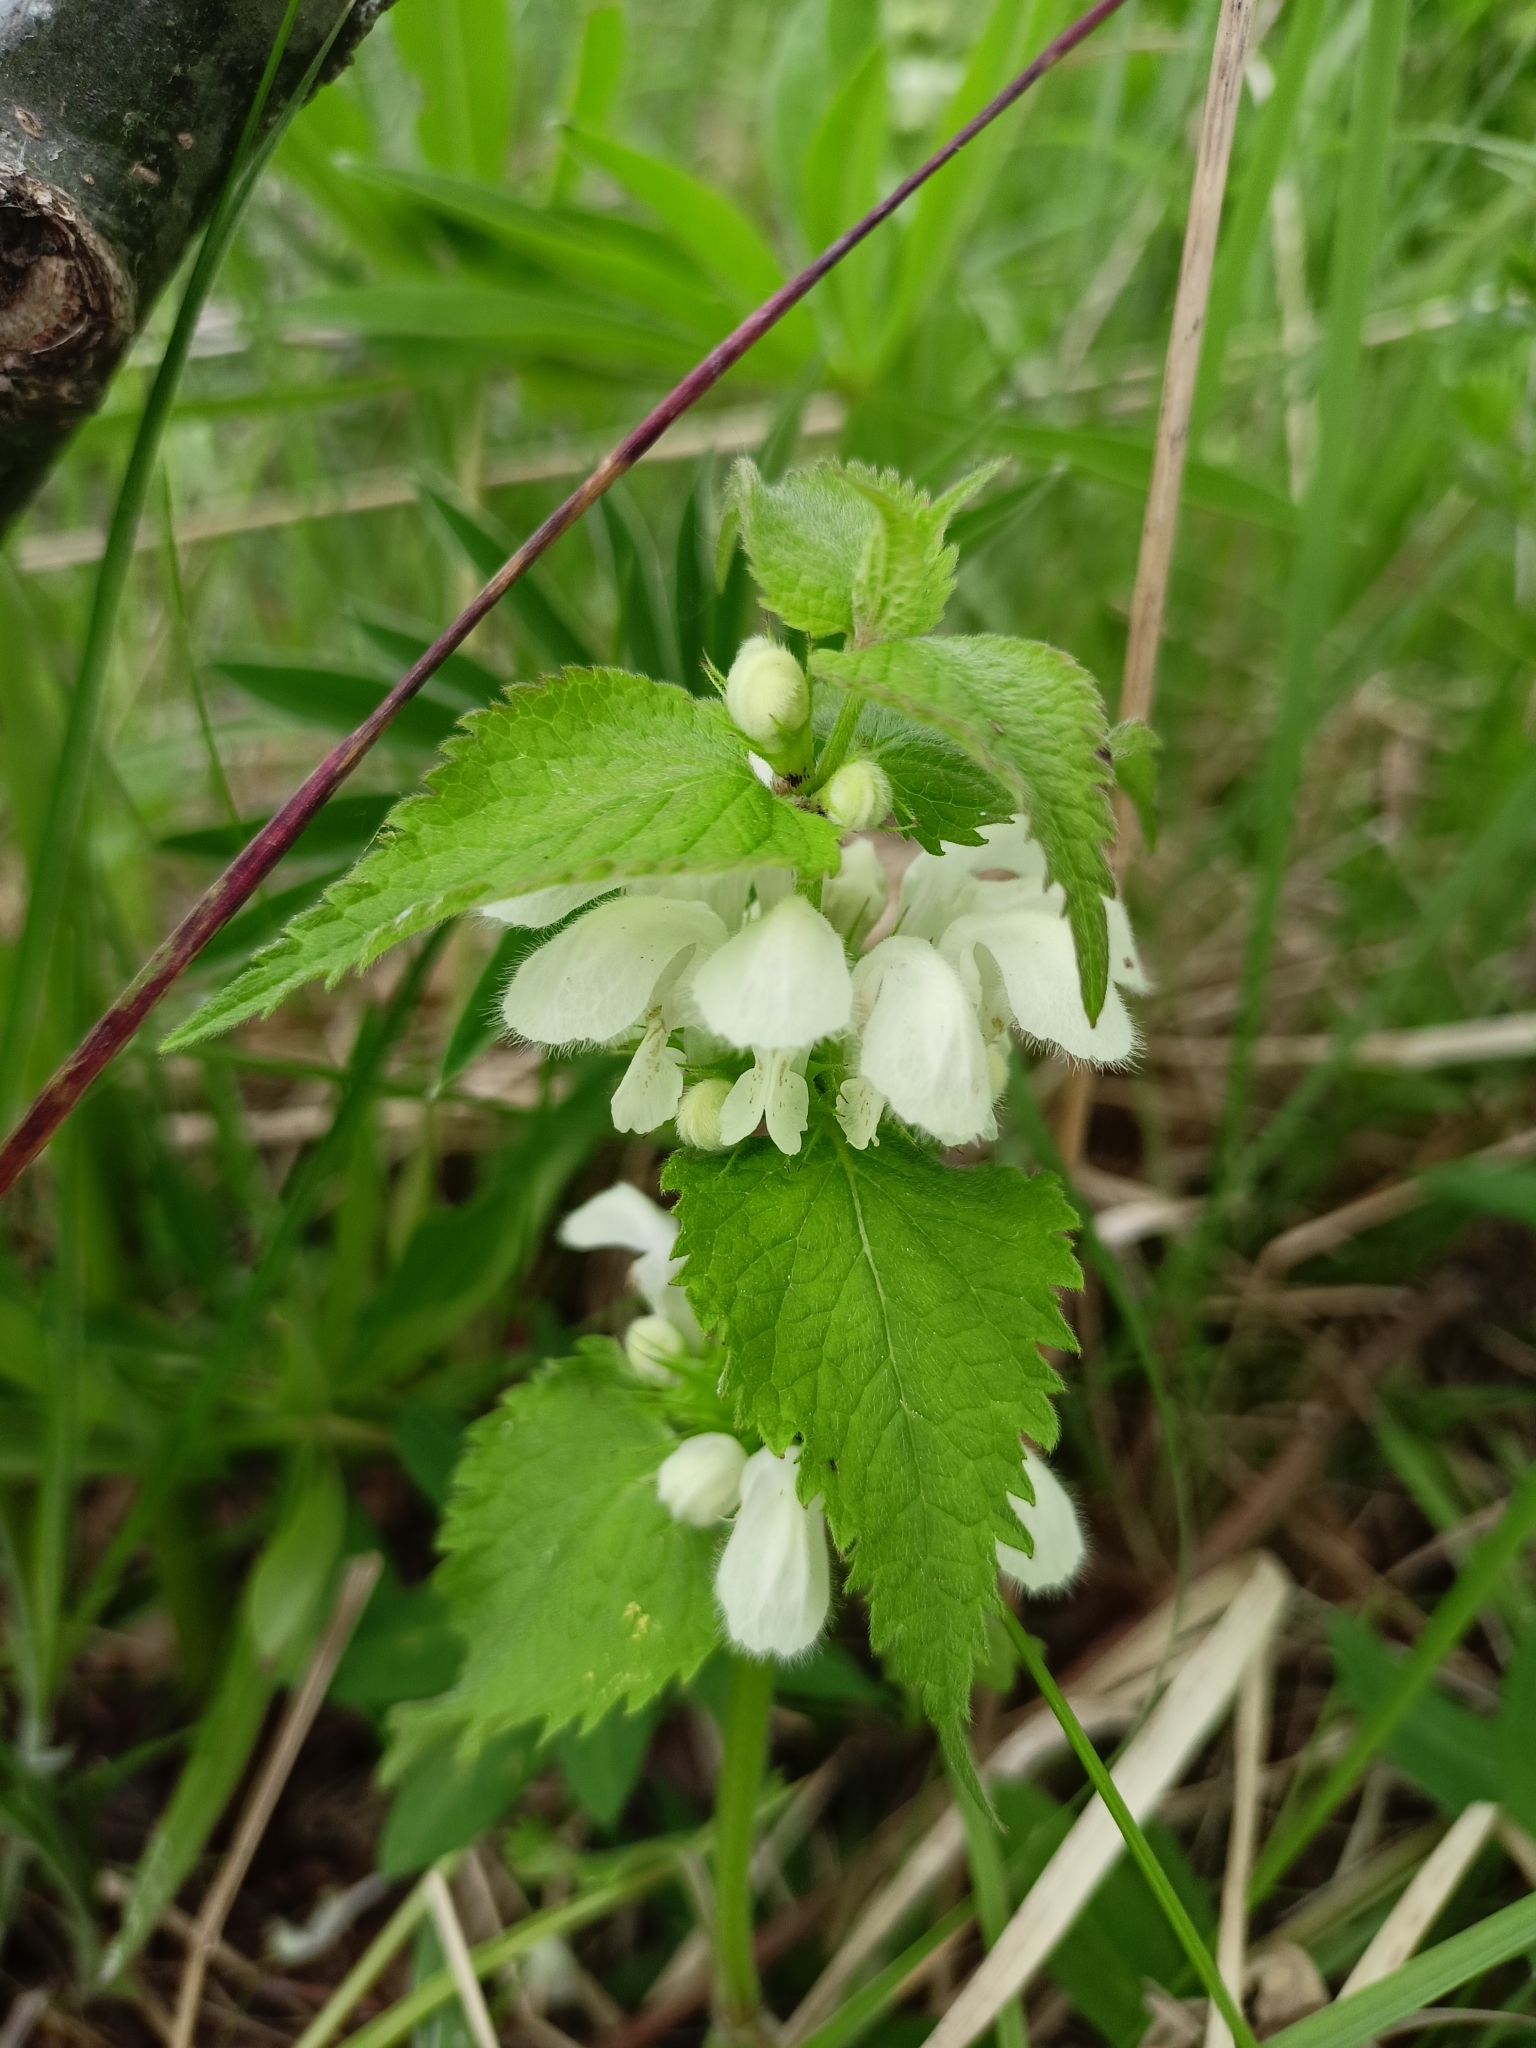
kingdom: Plantae
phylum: Tracheophyta
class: Magnoliopsida
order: Lamiales
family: Lamiaceae
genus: Lamium
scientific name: Lamium album
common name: White dead-nettle
